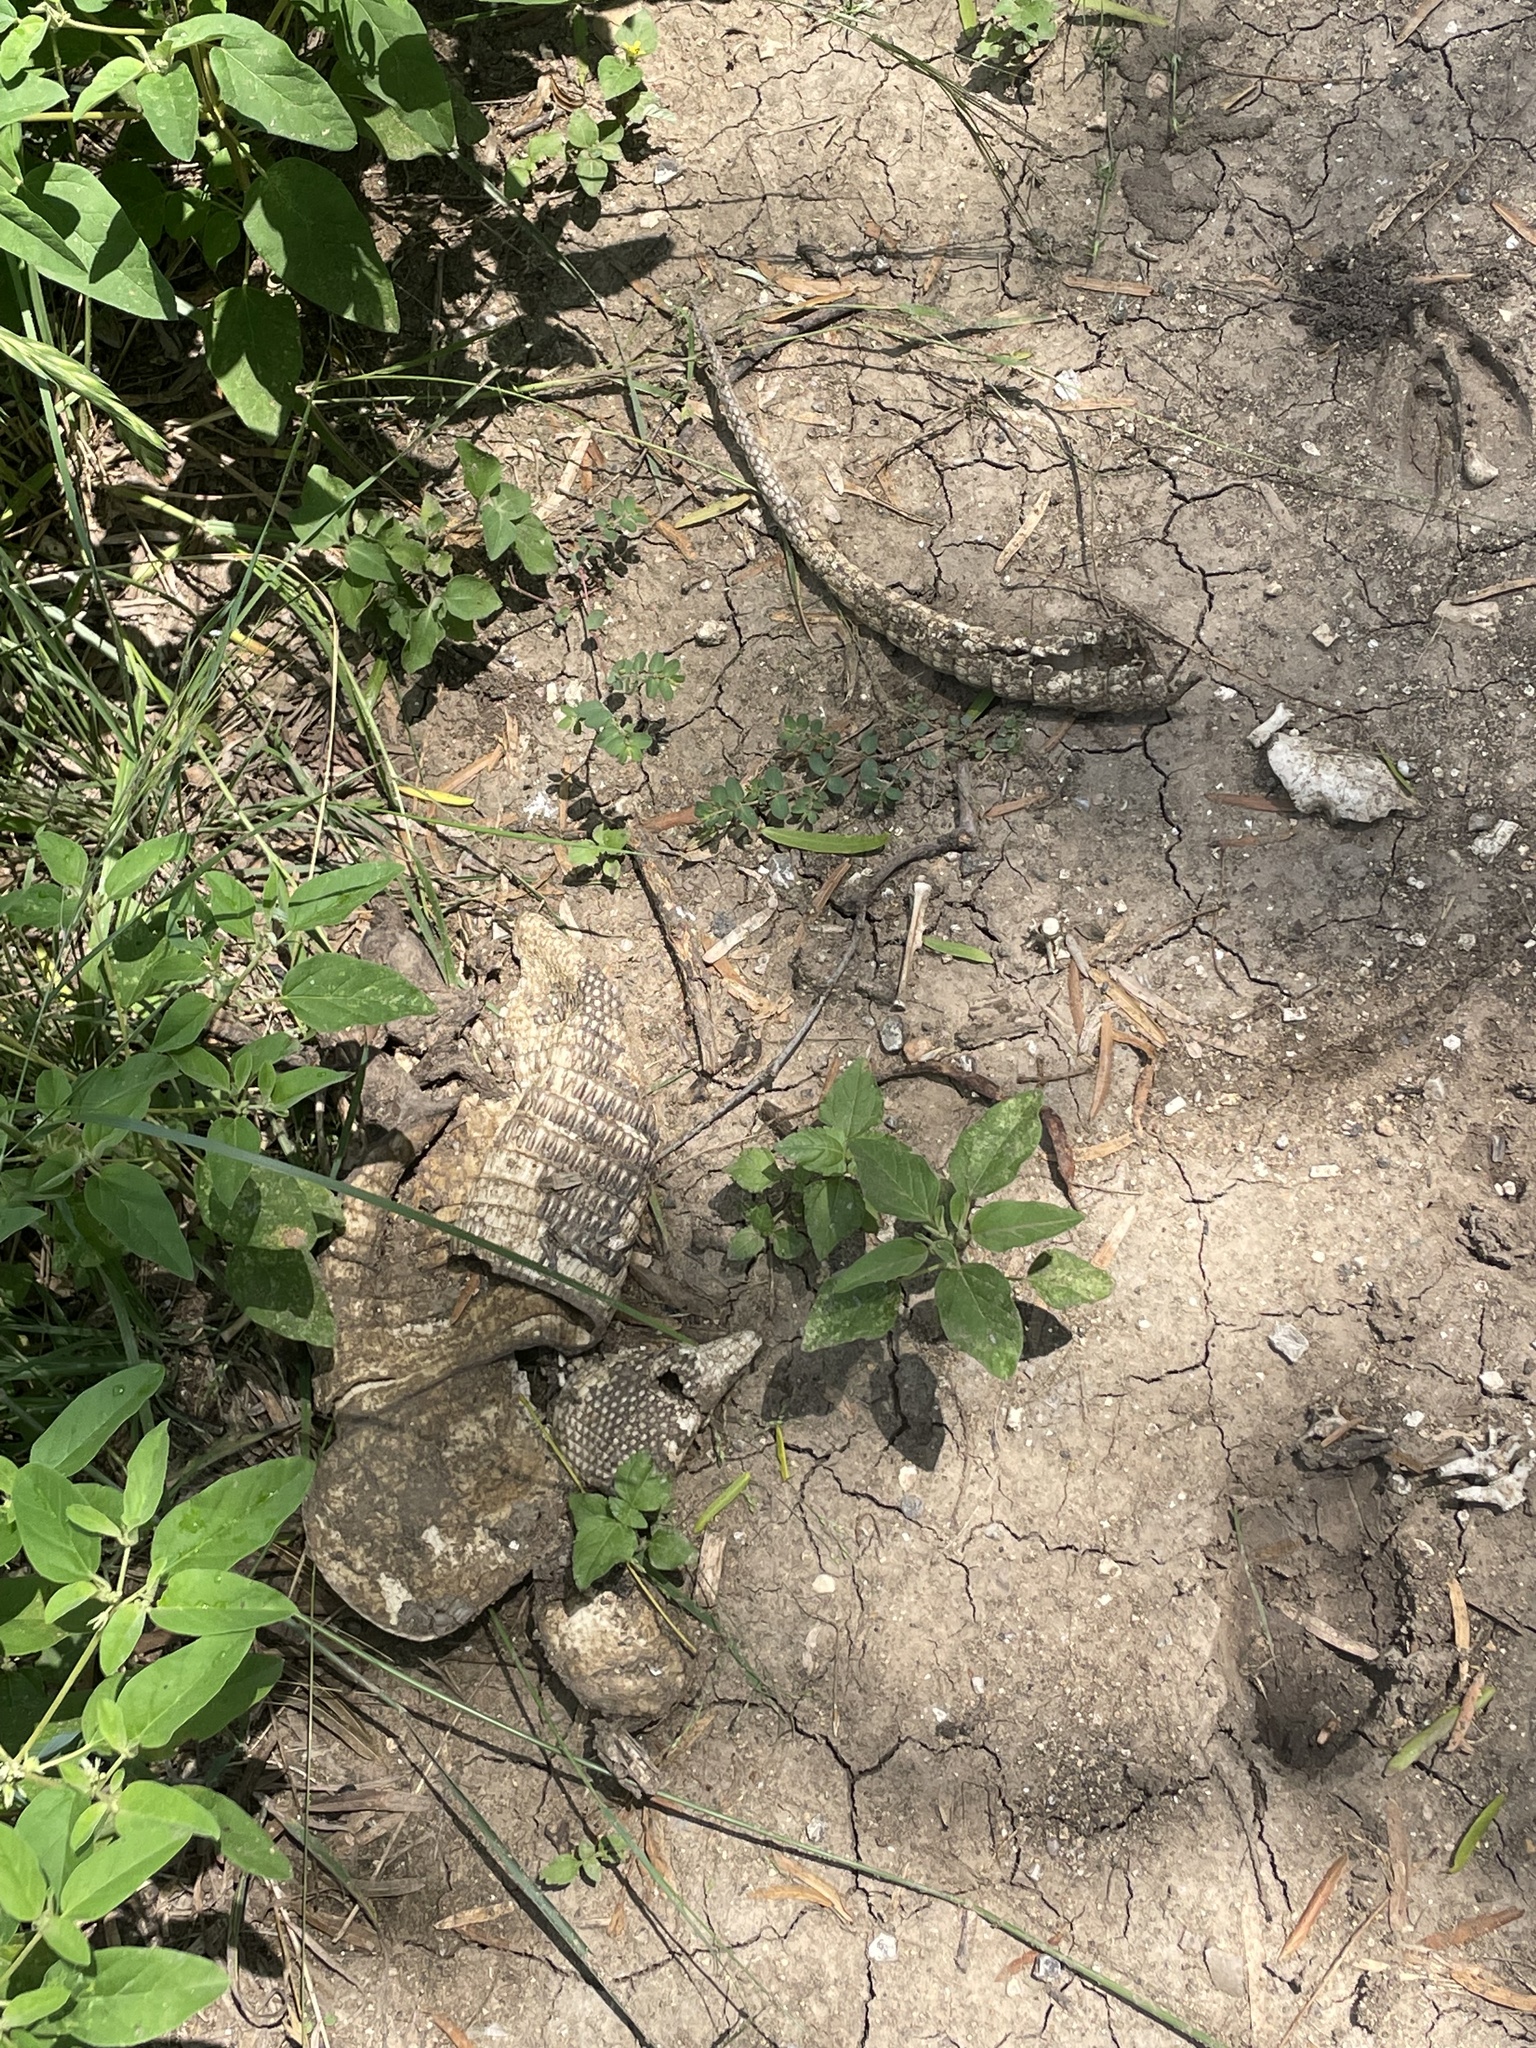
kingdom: Animalia
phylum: Chordata
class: Mammalia
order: Cingulata
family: Dasypodidae
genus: Dasypus
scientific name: Dasypus novemcinctus
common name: Nine-banded armadillo
